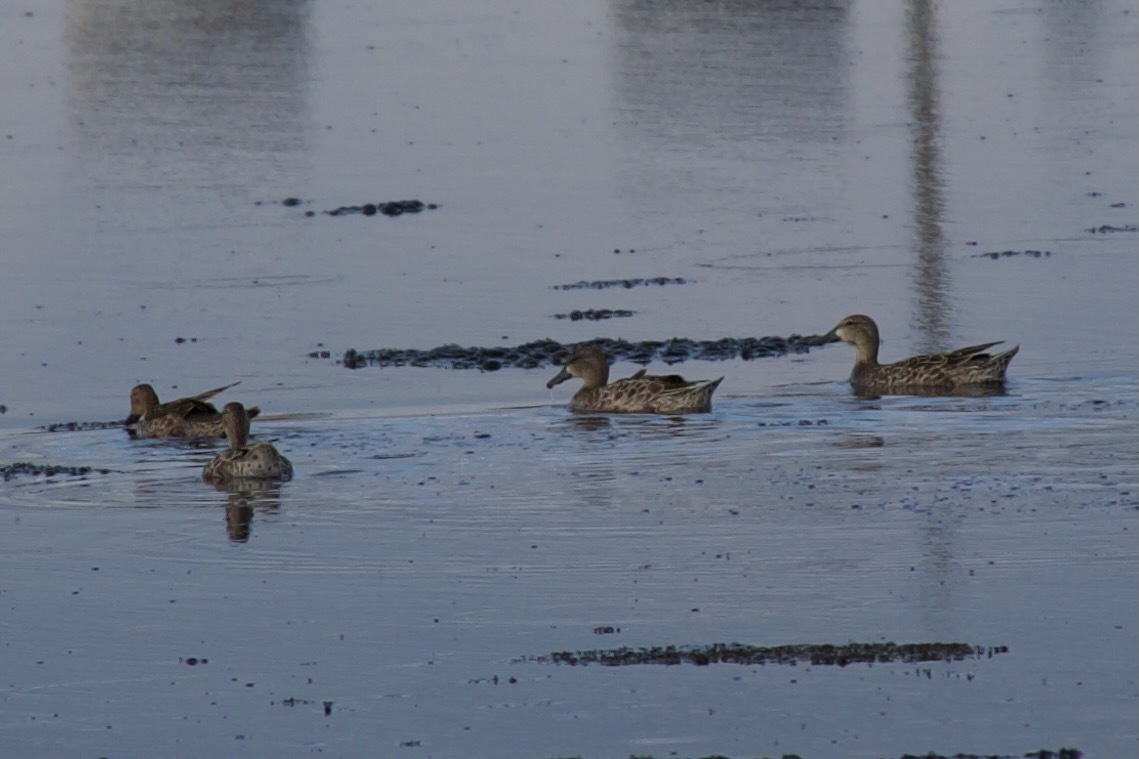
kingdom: Animalia
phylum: Chordata
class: Aves
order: Anseriformes
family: Anatidae
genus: Spatula
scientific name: Spatula discors
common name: Blue-winged teal
